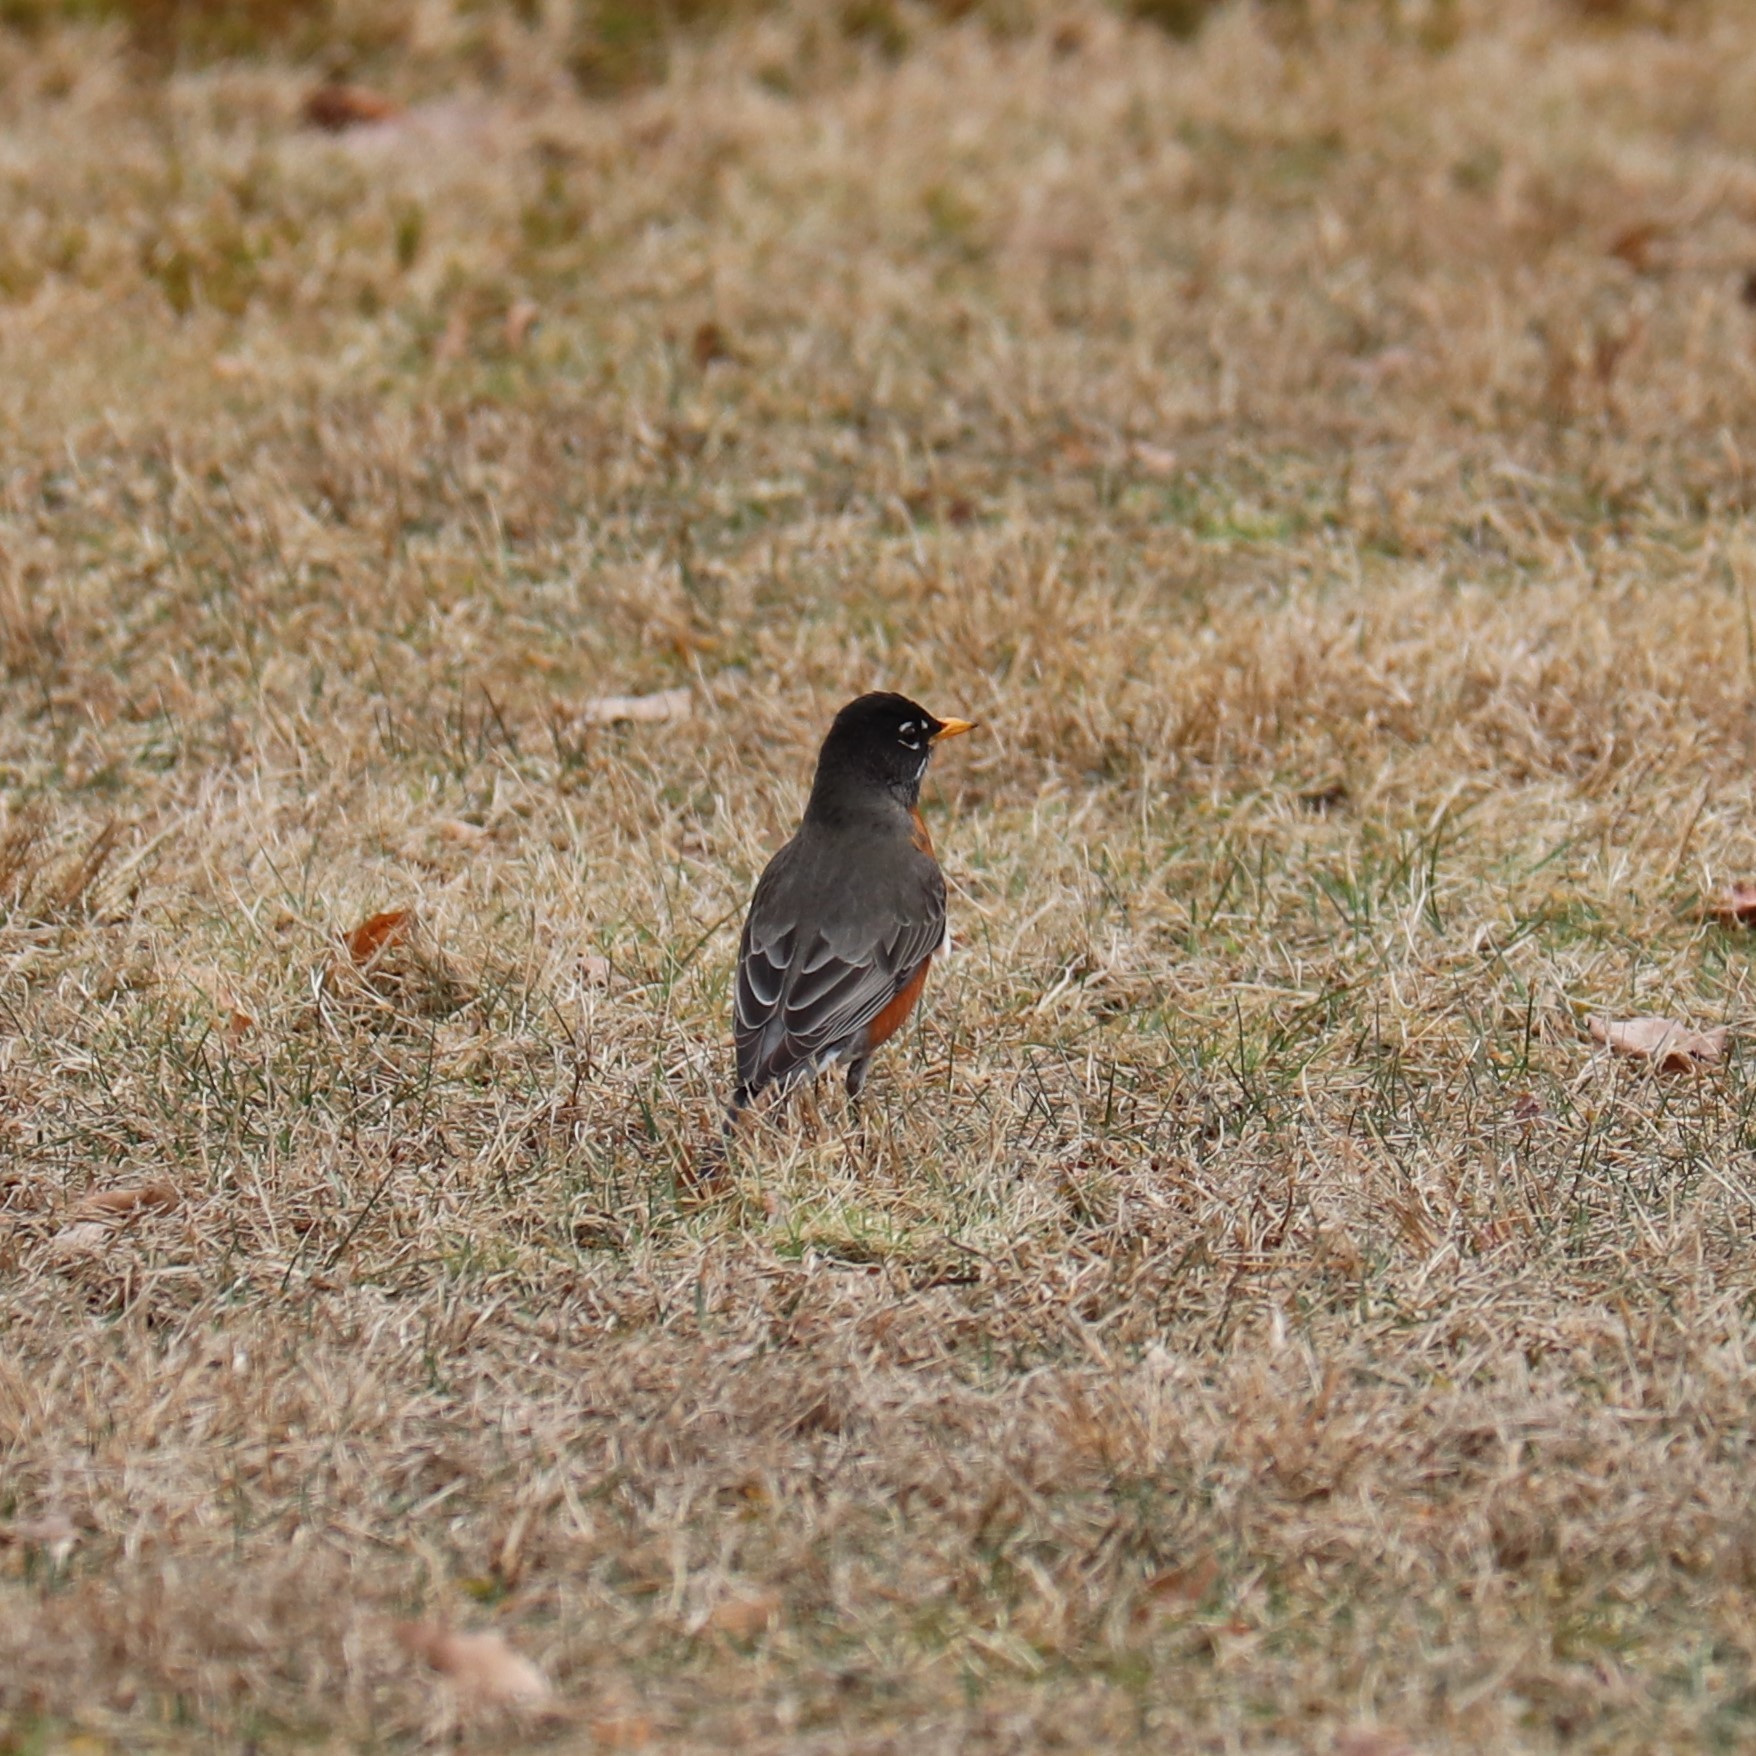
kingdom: Animalia
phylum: Chordata
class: Aves
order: Passeriformes
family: Turdidae
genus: Turdus
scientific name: Turdus migratorius
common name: American robin
